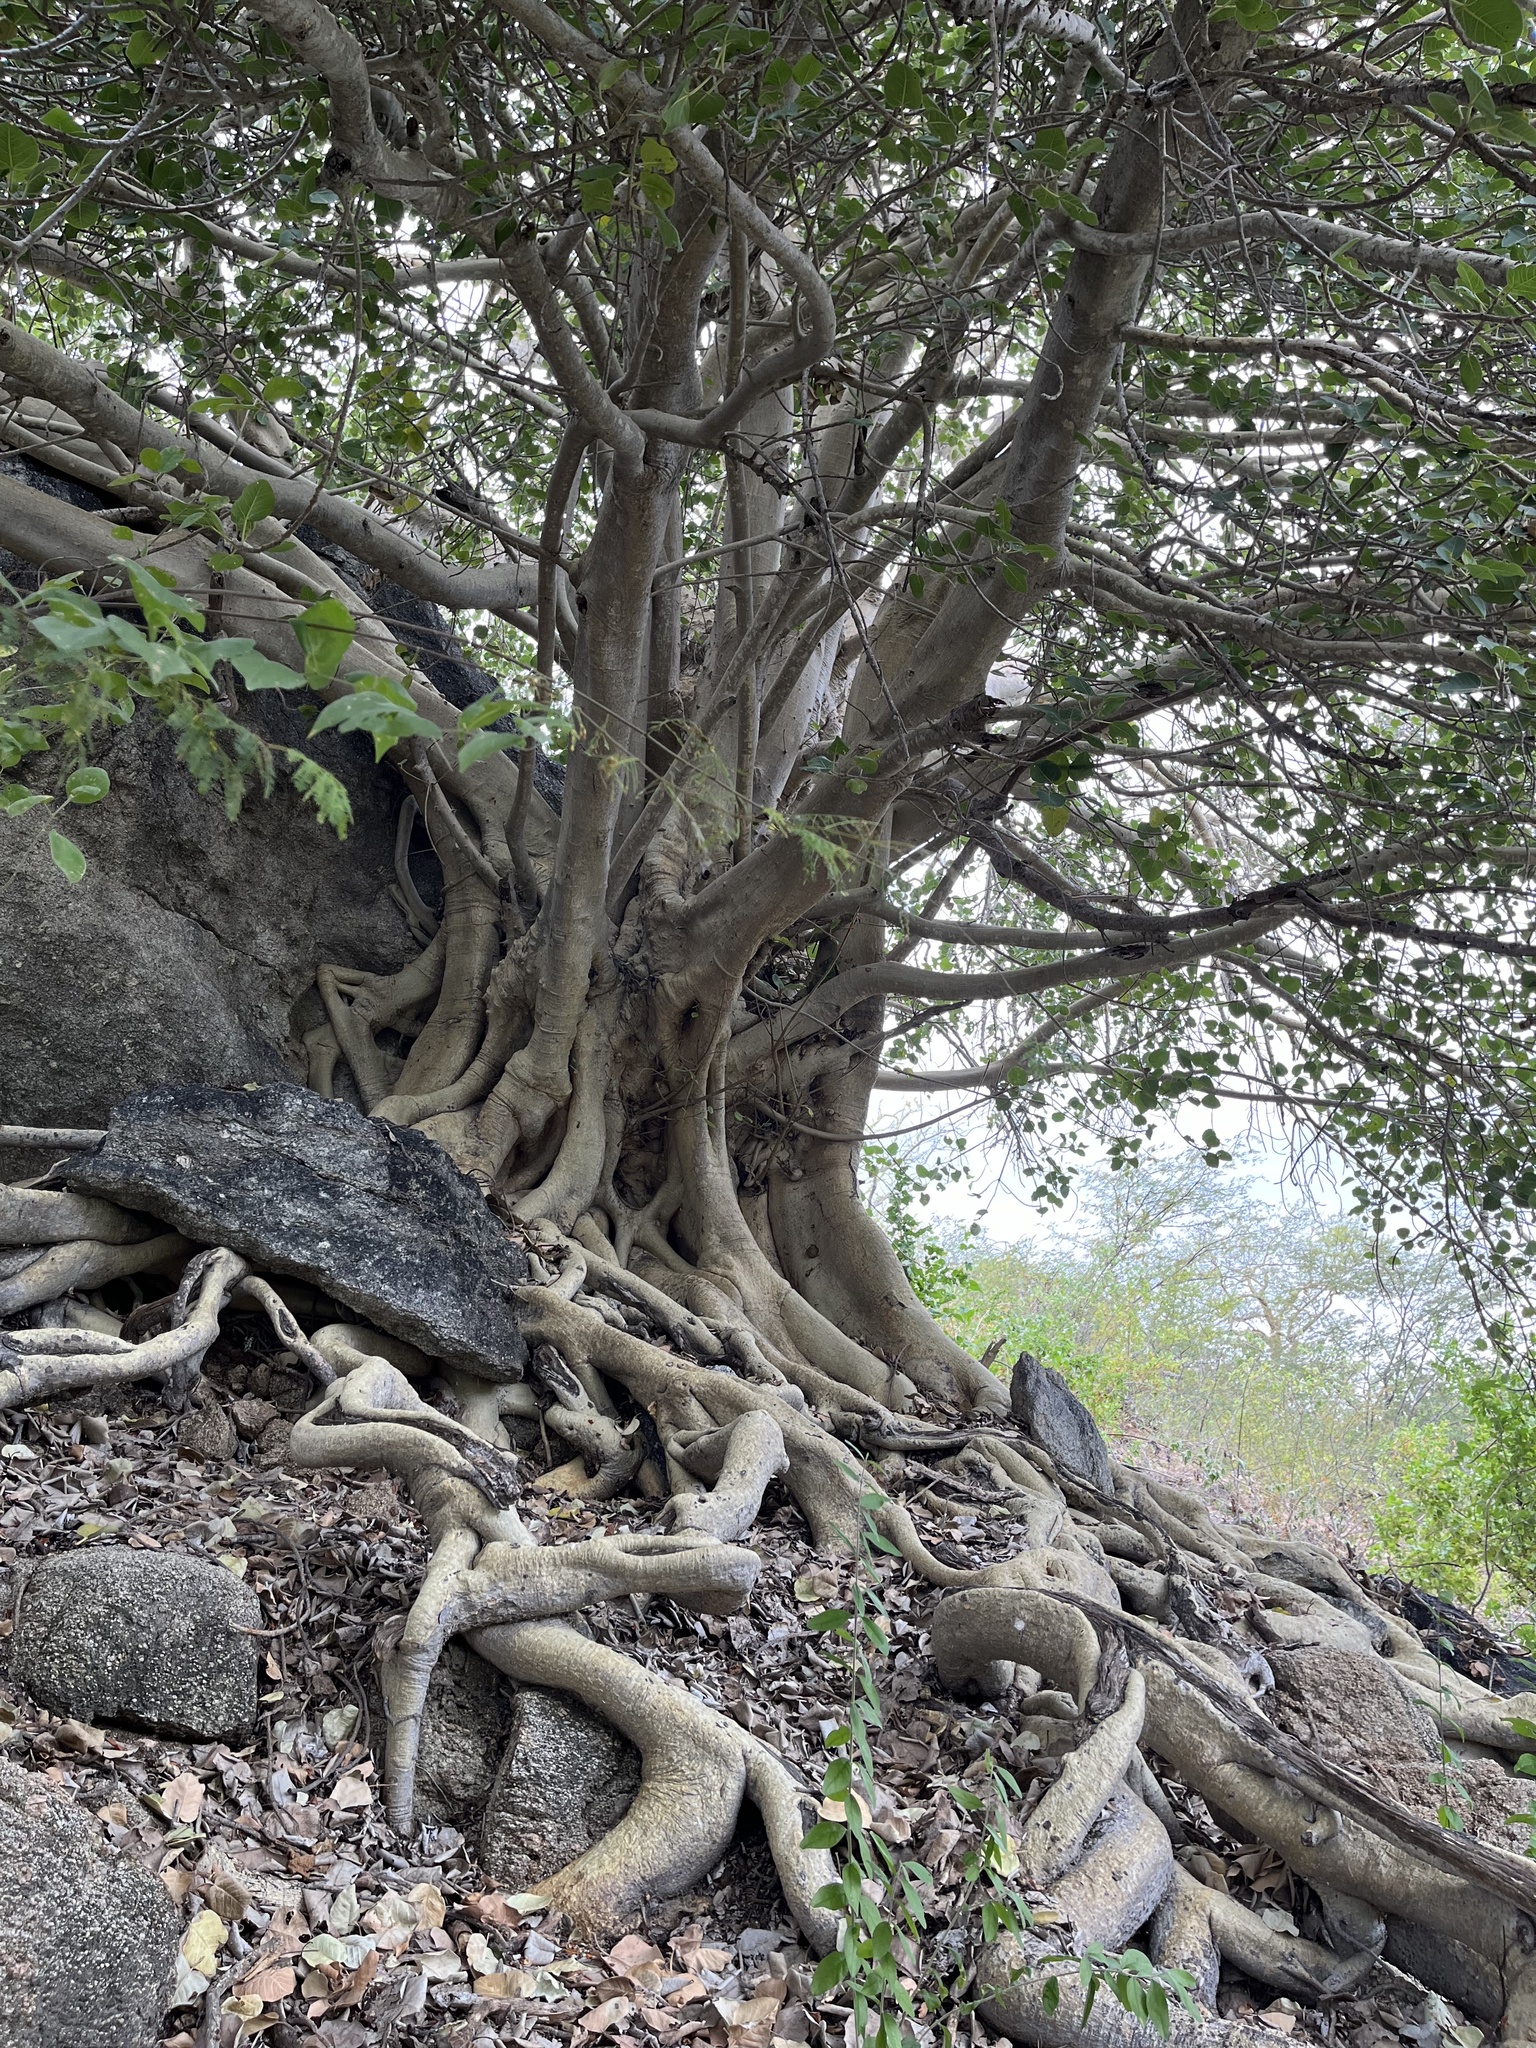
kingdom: Plantae
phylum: Tracheophyta
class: Magnoliopsida
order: Rosales
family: Moraceae
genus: Ficus
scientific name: Ficus petiolaris
